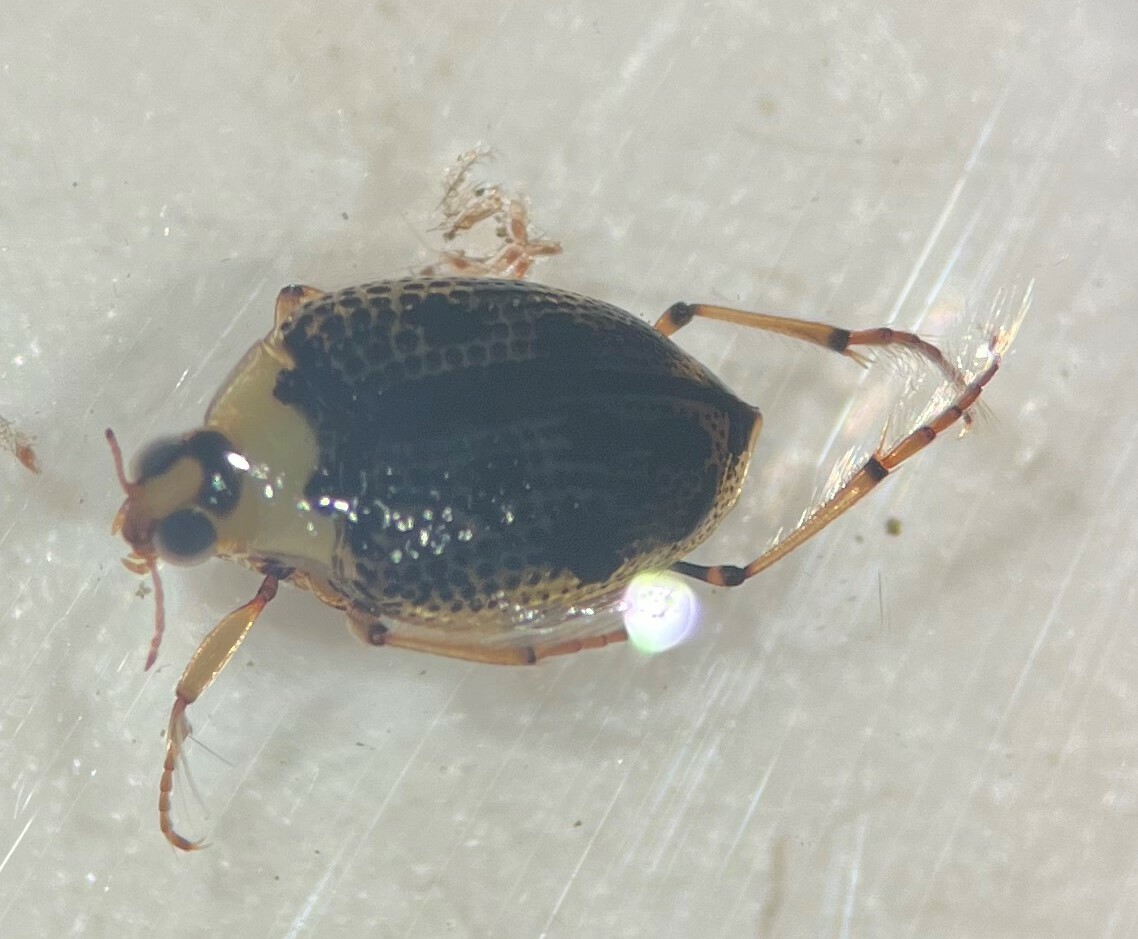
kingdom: Animalia
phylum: Arthropoda
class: Insecta
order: Coleoptera
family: Haliplidae
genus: Peltodytes
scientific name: Peltodytes edentulus
